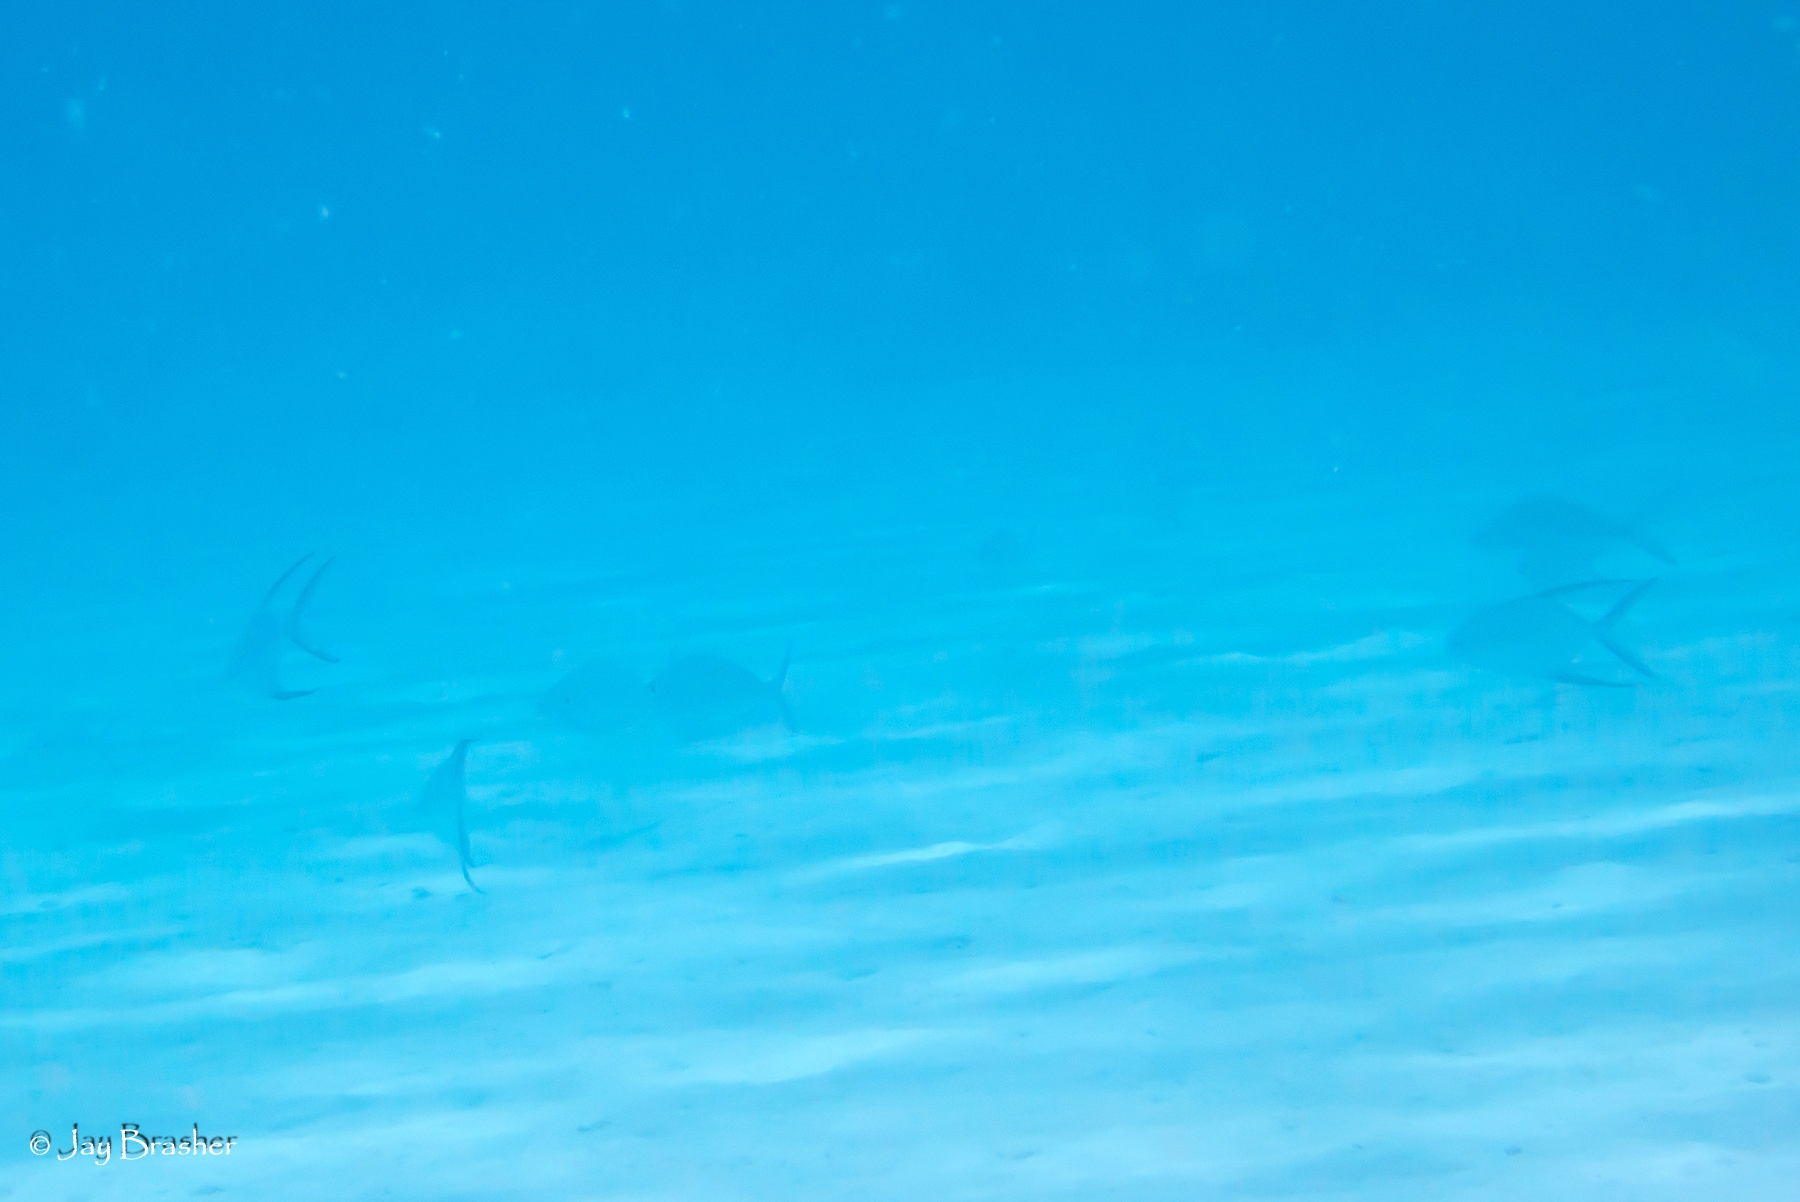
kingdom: Animalia
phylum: Chordata
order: Perciformes
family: Carangidae
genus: Trachinotus
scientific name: Trachinotus goodei
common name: Palometa
